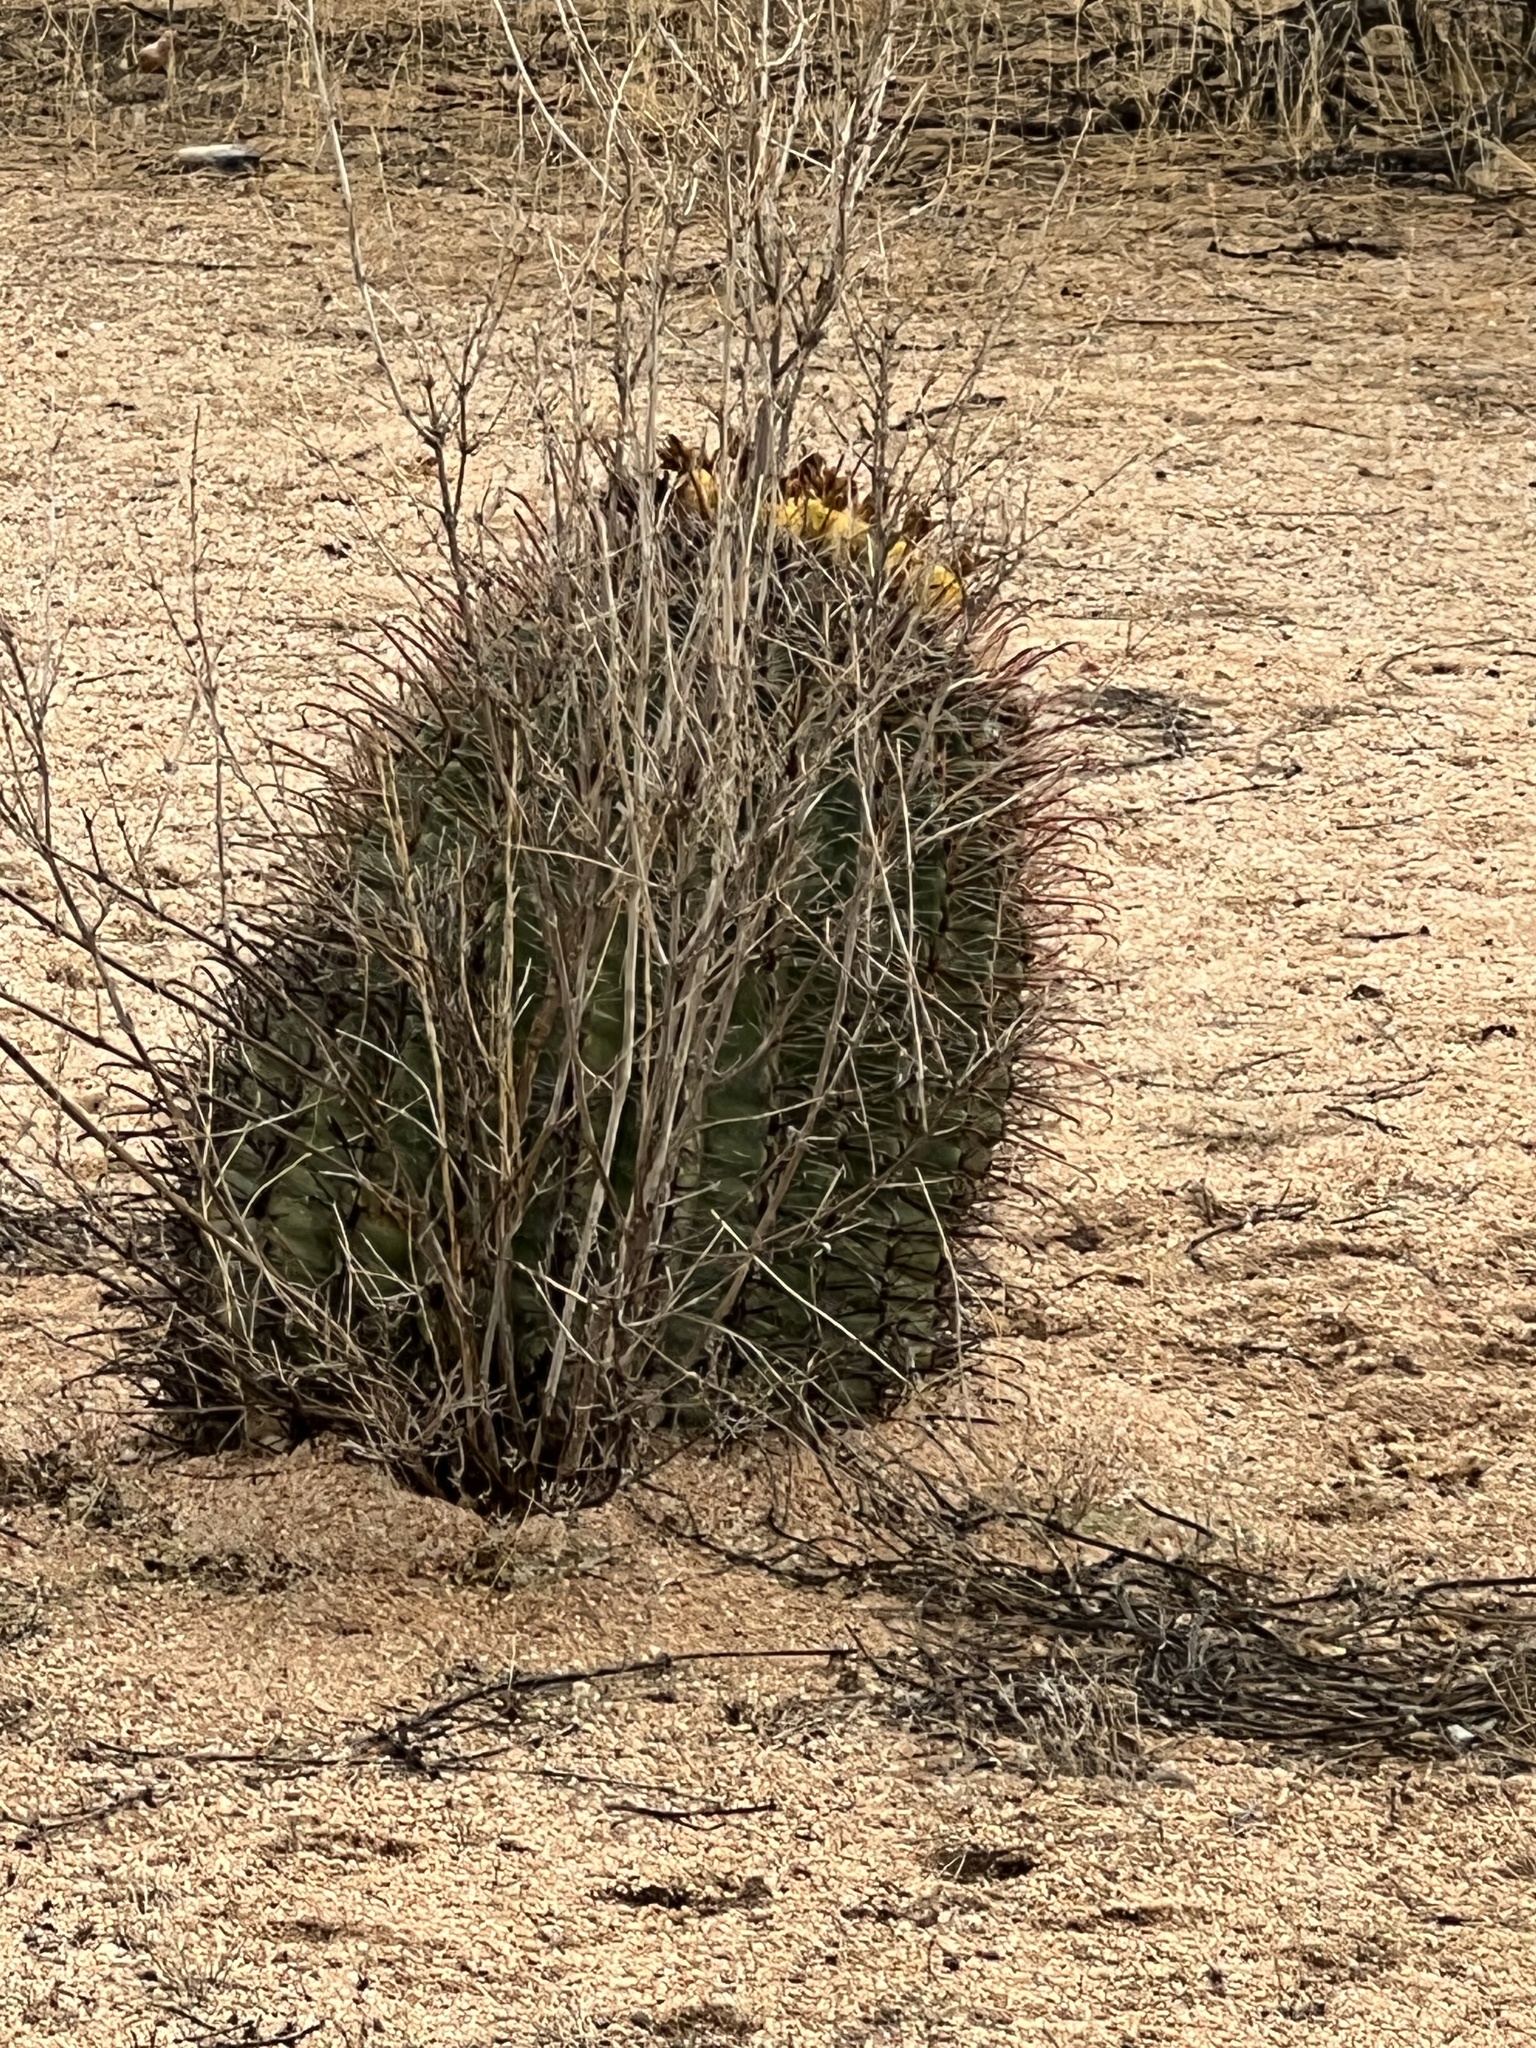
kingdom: Plantae
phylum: Tracheophyta
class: Magnoliopsida
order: Caryophyllales
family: Cactaceae
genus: Ferocactus
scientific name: Ferocactus wislizeni
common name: Candy barrel cactus
